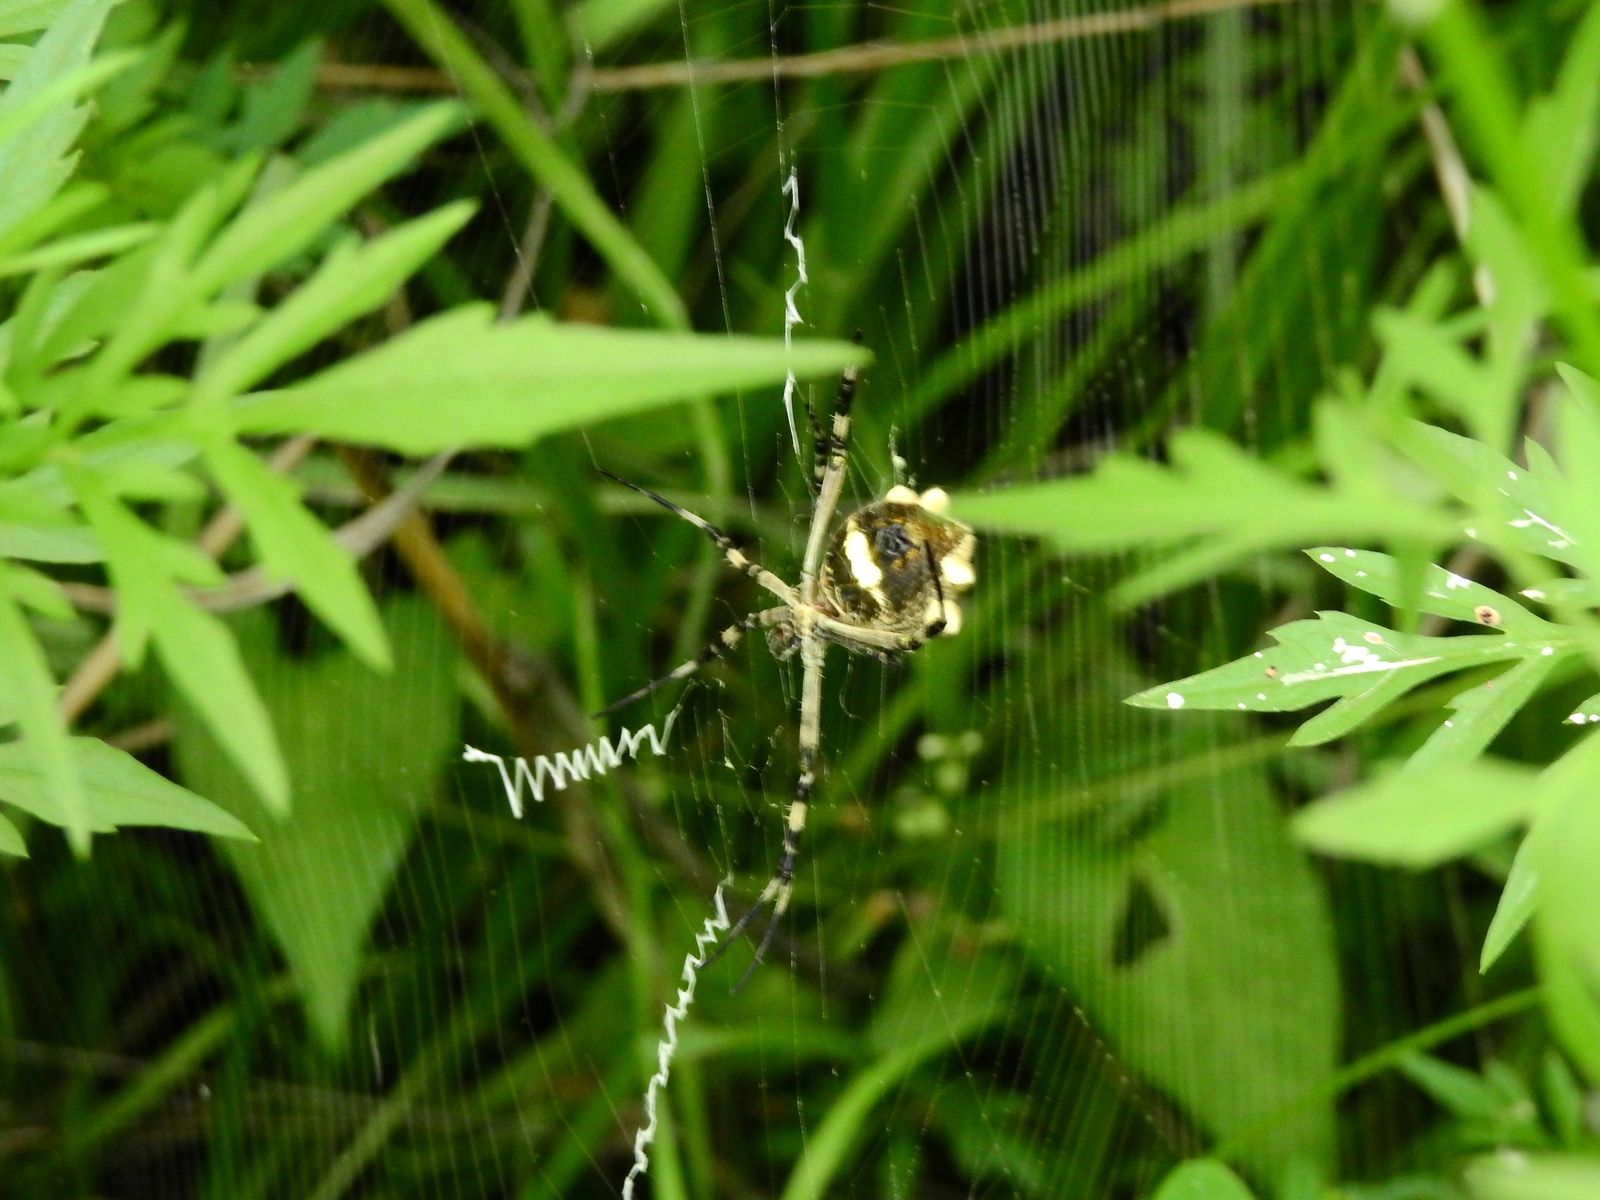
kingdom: Animalia
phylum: Arthropoda
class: Arachnida
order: Araneae
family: Araneidae
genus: Argiope
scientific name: Argiope argentata
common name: Orb weavers
